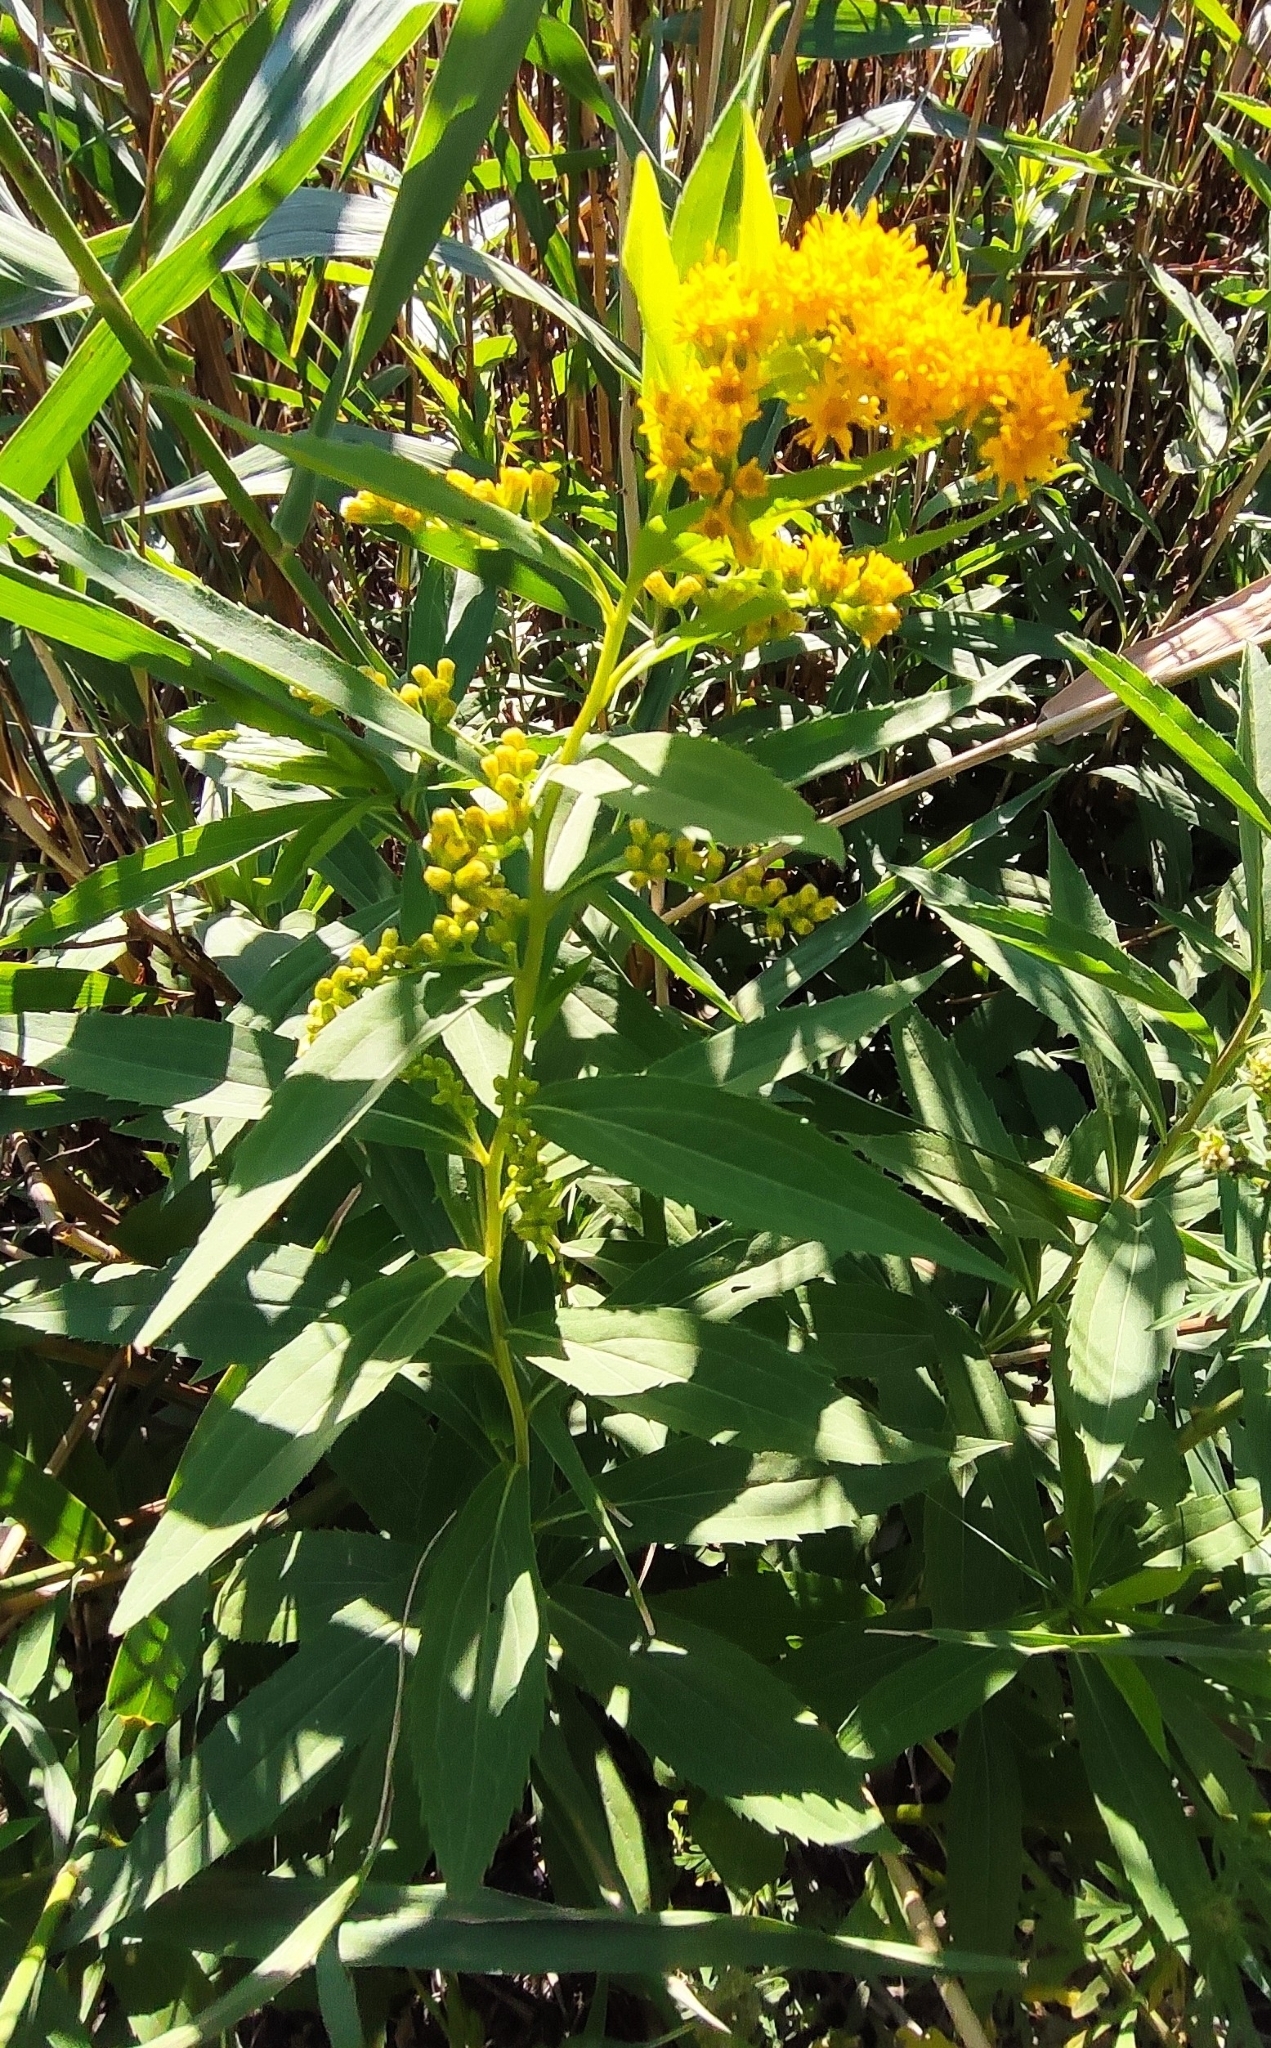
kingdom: Plantae
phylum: Tracheophyta
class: Magnoliopsida
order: Asterales
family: Asteraceae
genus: Solidago
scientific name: Solidago gigantea
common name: Giant goldenrod
